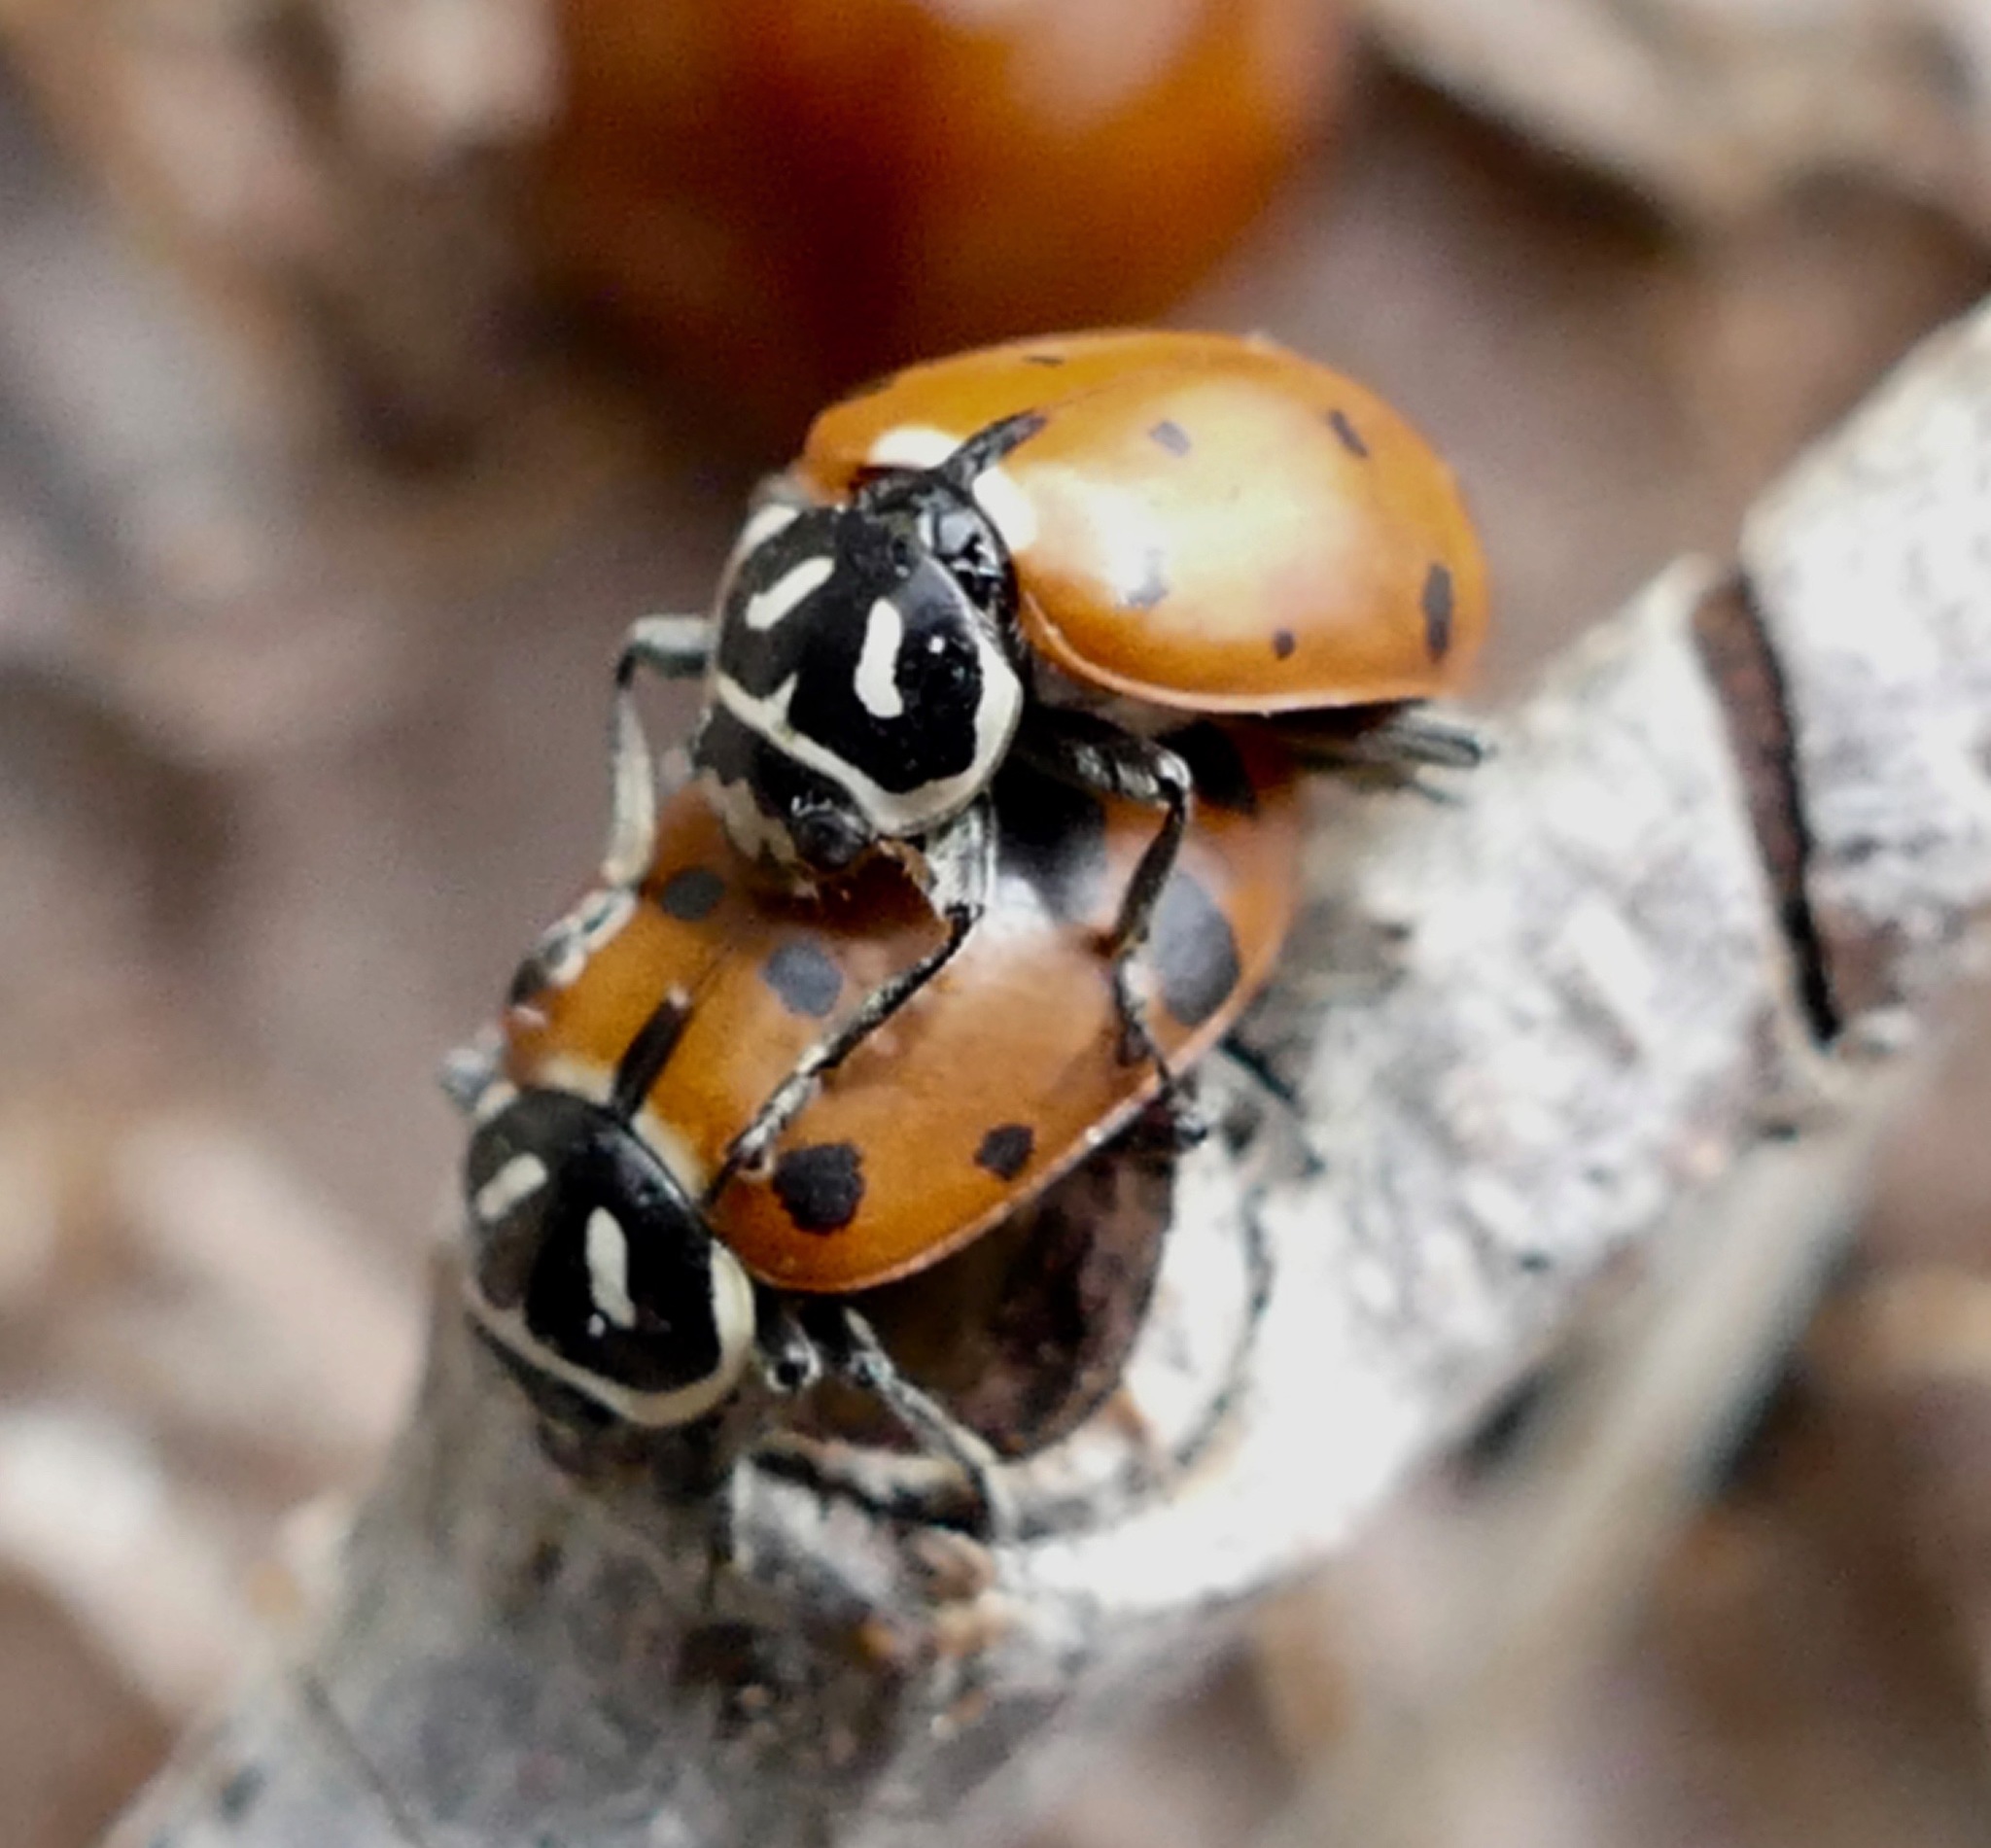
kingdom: Animalia
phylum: Arthropoda
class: Insecta
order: Coleoptera
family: Coccinellidae
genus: Hippodamia
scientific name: Hippodamia convergens
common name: Convergent lady beetle
